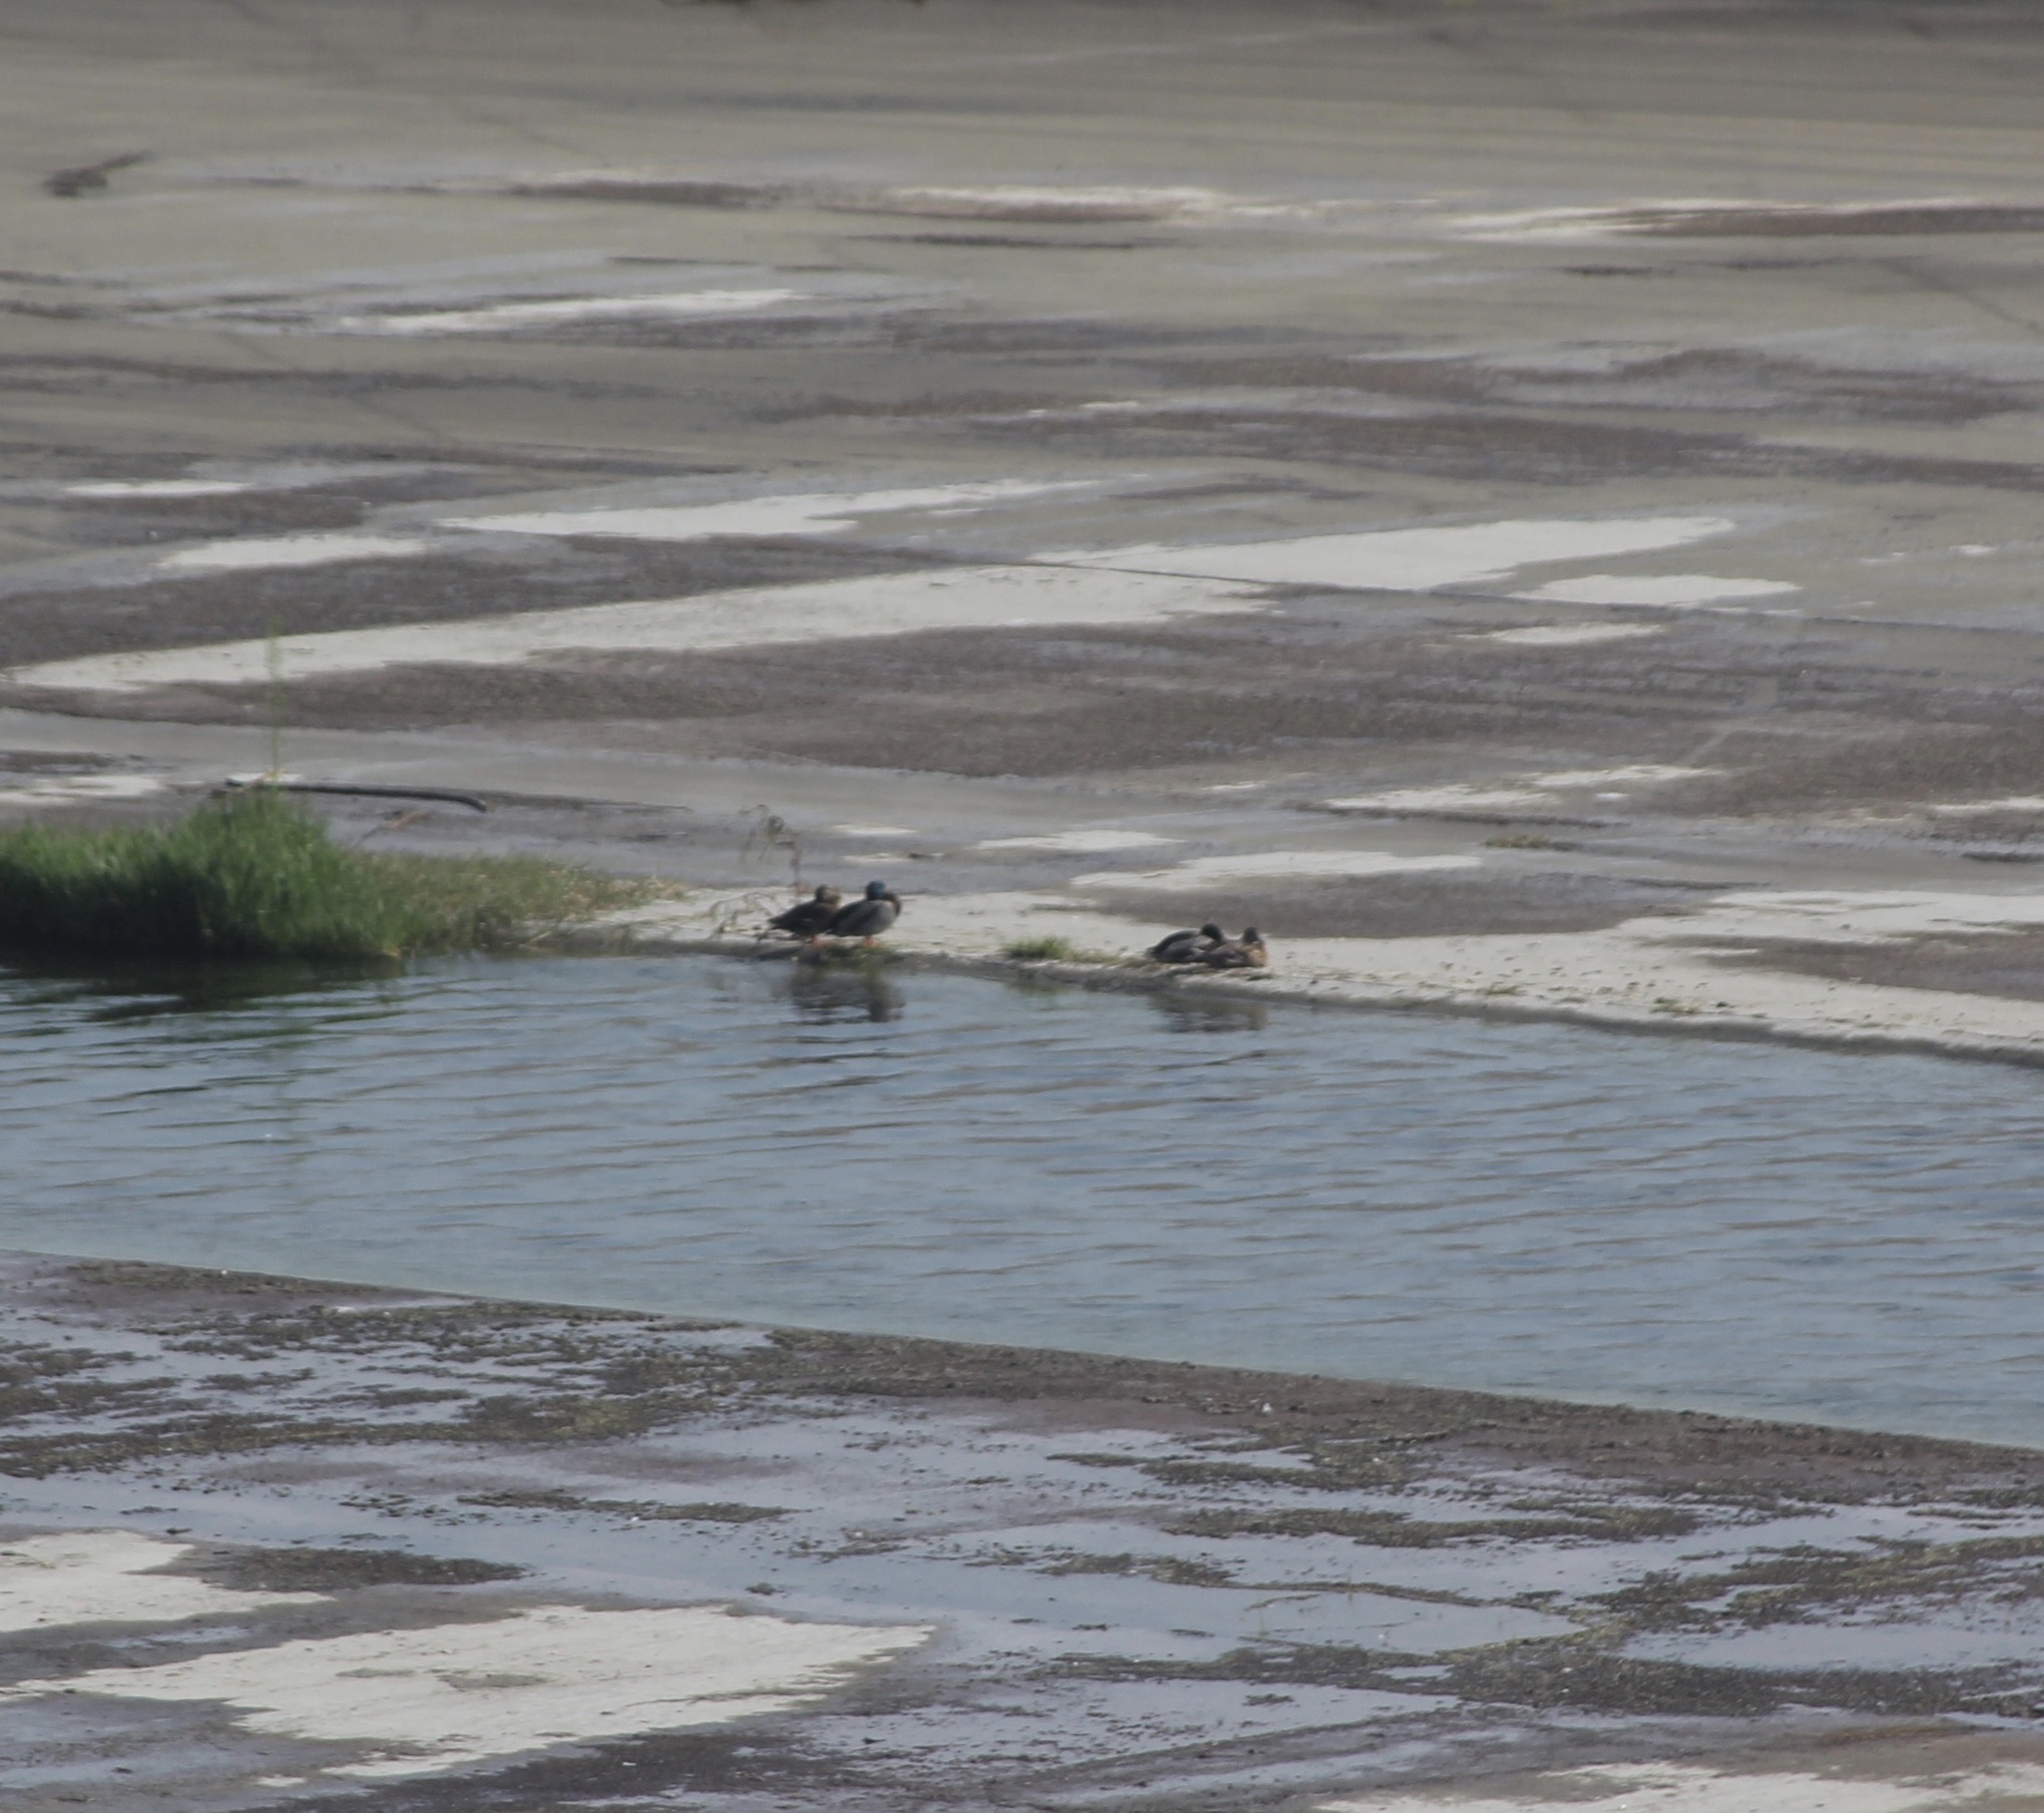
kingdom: Animalia
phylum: Chordata
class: Aves
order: Anseriformes
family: Anatidae
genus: Anas
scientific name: Anas platyrhynchos
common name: Mallard
